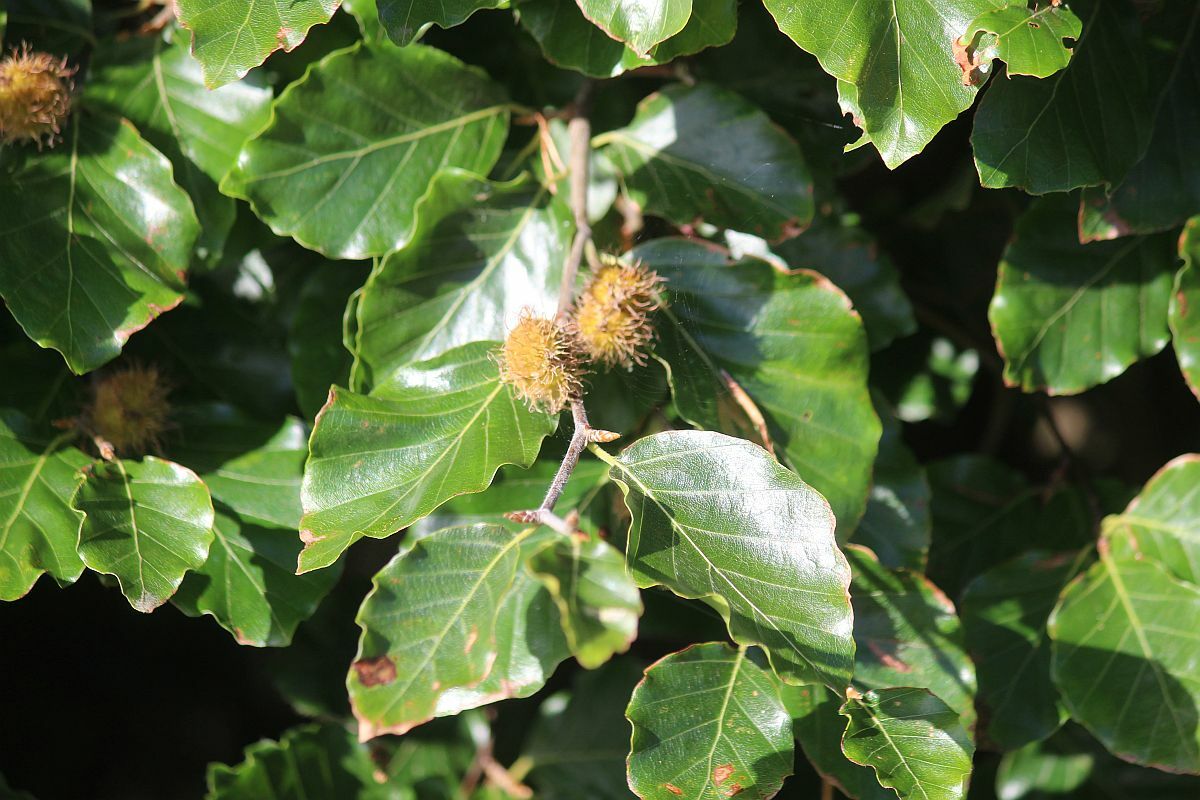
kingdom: Plantae
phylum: Tracheophyta
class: Magnoliopsida
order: Fagales
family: Fagaceae
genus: Fagus
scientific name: Fagus sylvatica
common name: Beech
